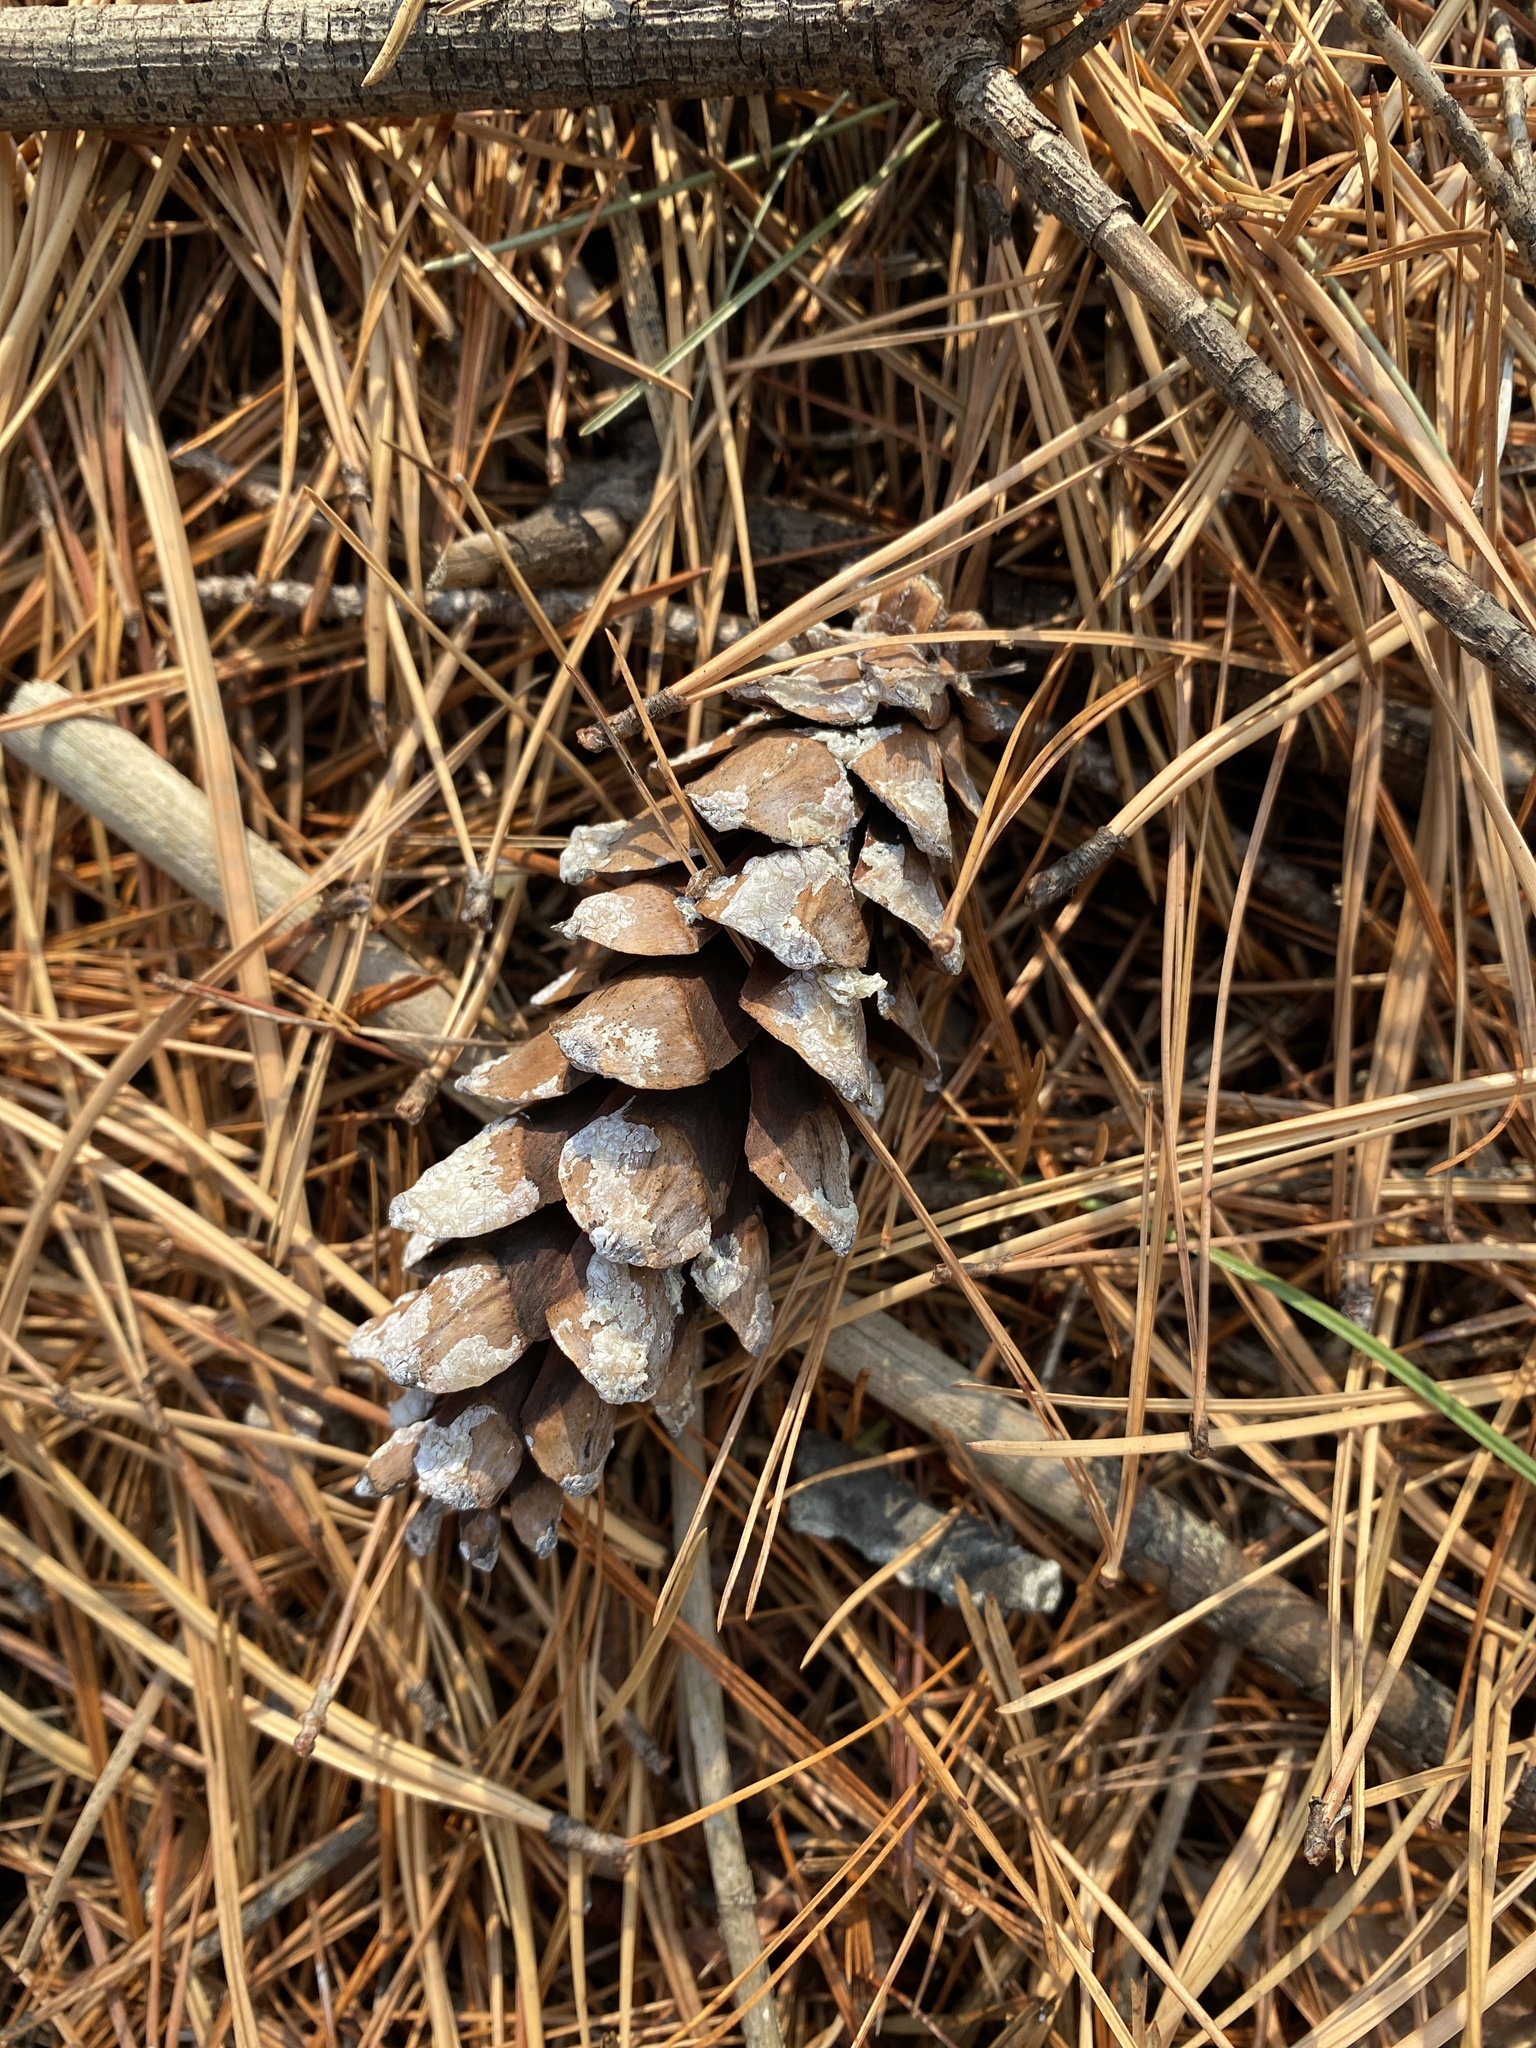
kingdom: Plantae
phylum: Tracheophyta
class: Pinopsida
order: Pinales
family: Pinaceae
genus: Pinus
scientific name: Pinus strobus
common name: Weymouth pine
